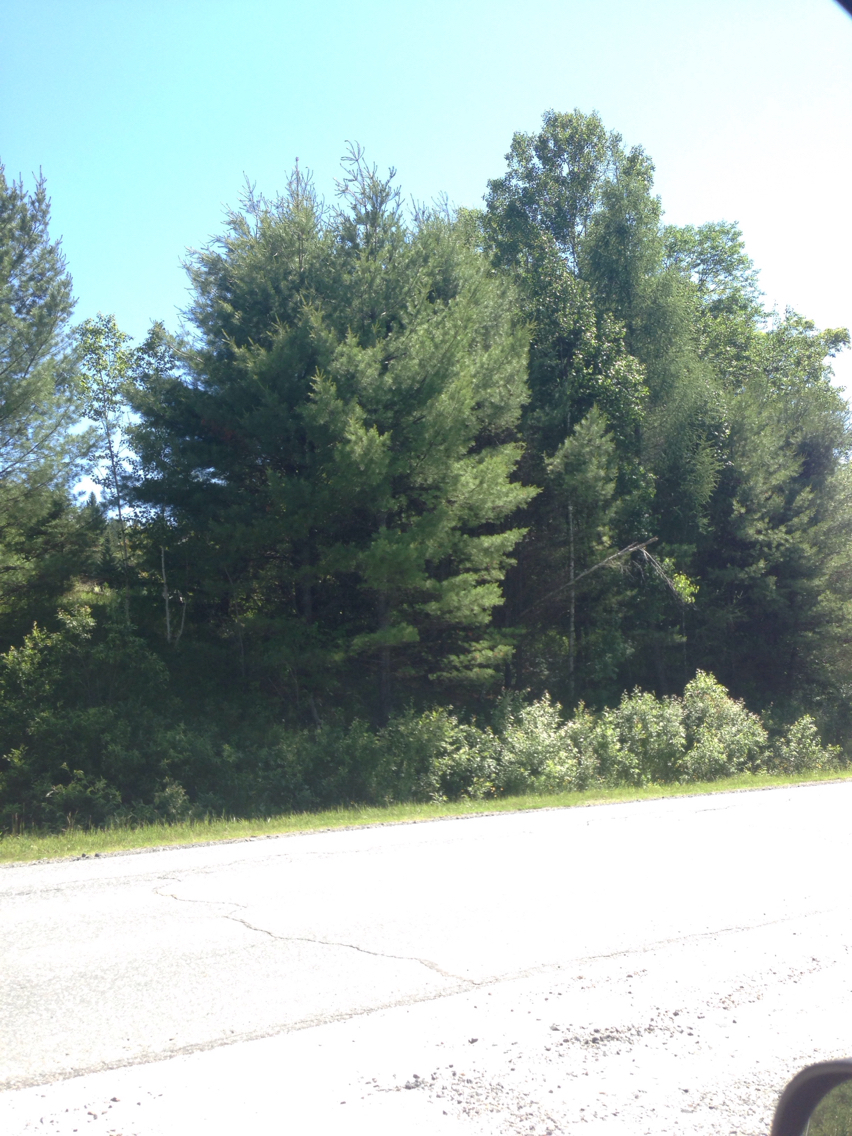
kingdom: Plantae
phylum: Tracheophyta
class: Pinopsida
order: Pinales
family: Pinaceae
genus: Pinus
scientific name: Pinus strobus
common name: Weymouth pine
